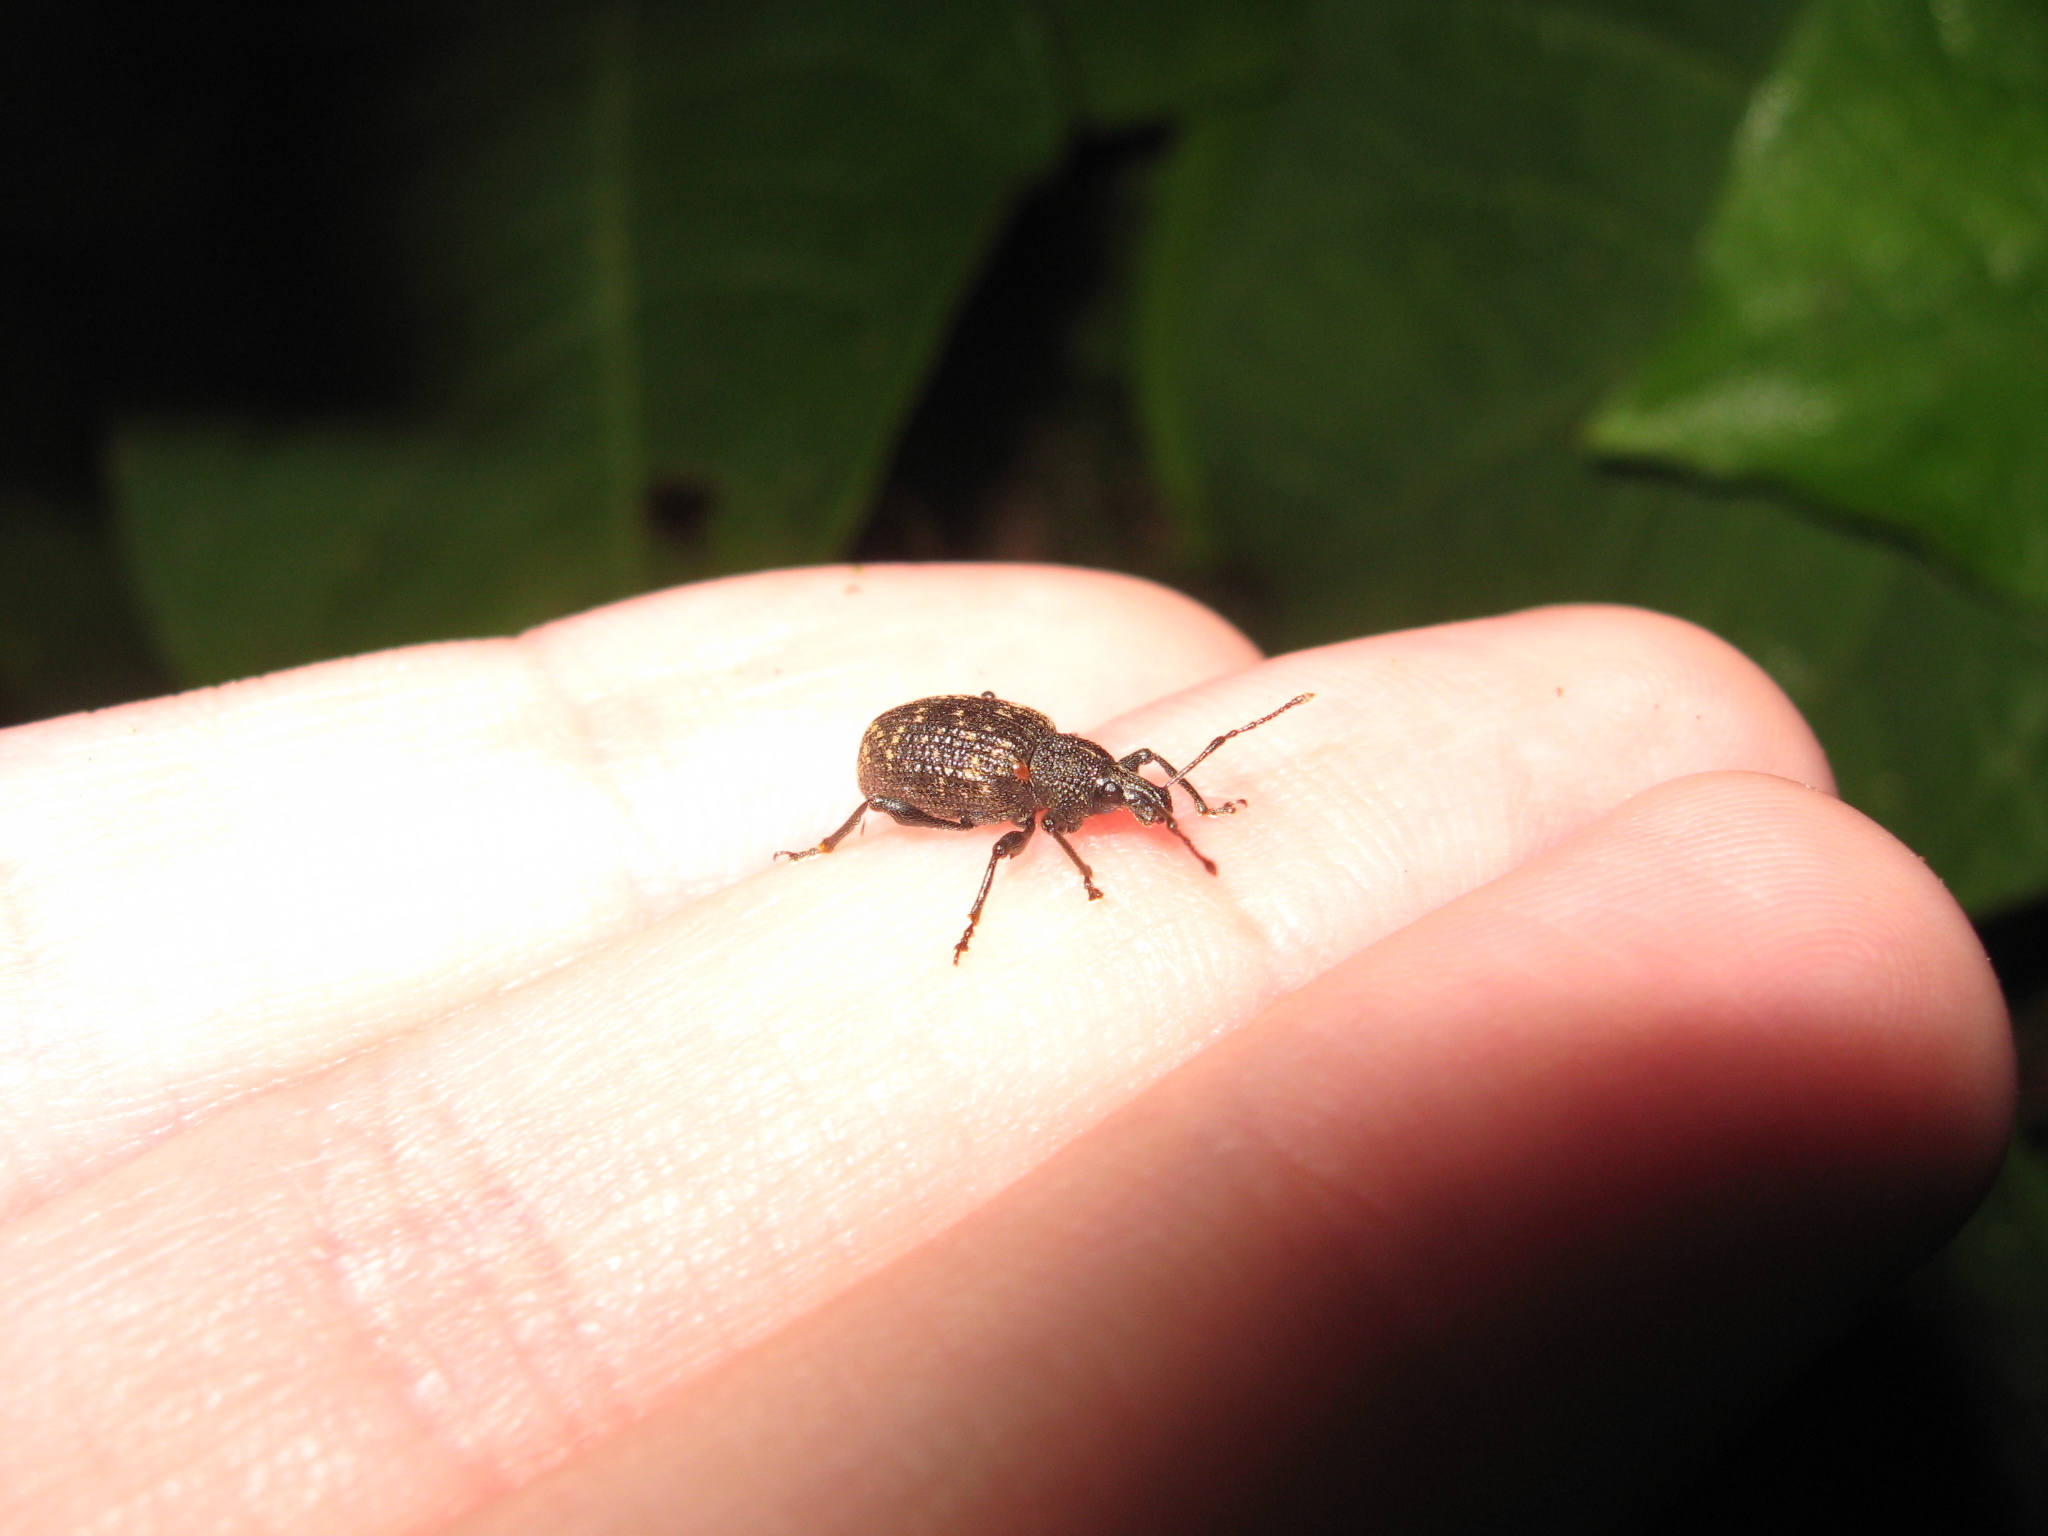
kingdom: Animalia
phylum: Arthropoda
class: Insecta
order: Coleoptera
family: Curculionidae
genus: Otiorhynchus
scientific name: Otiorhynchus sulcatus
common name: Black vine weevil
